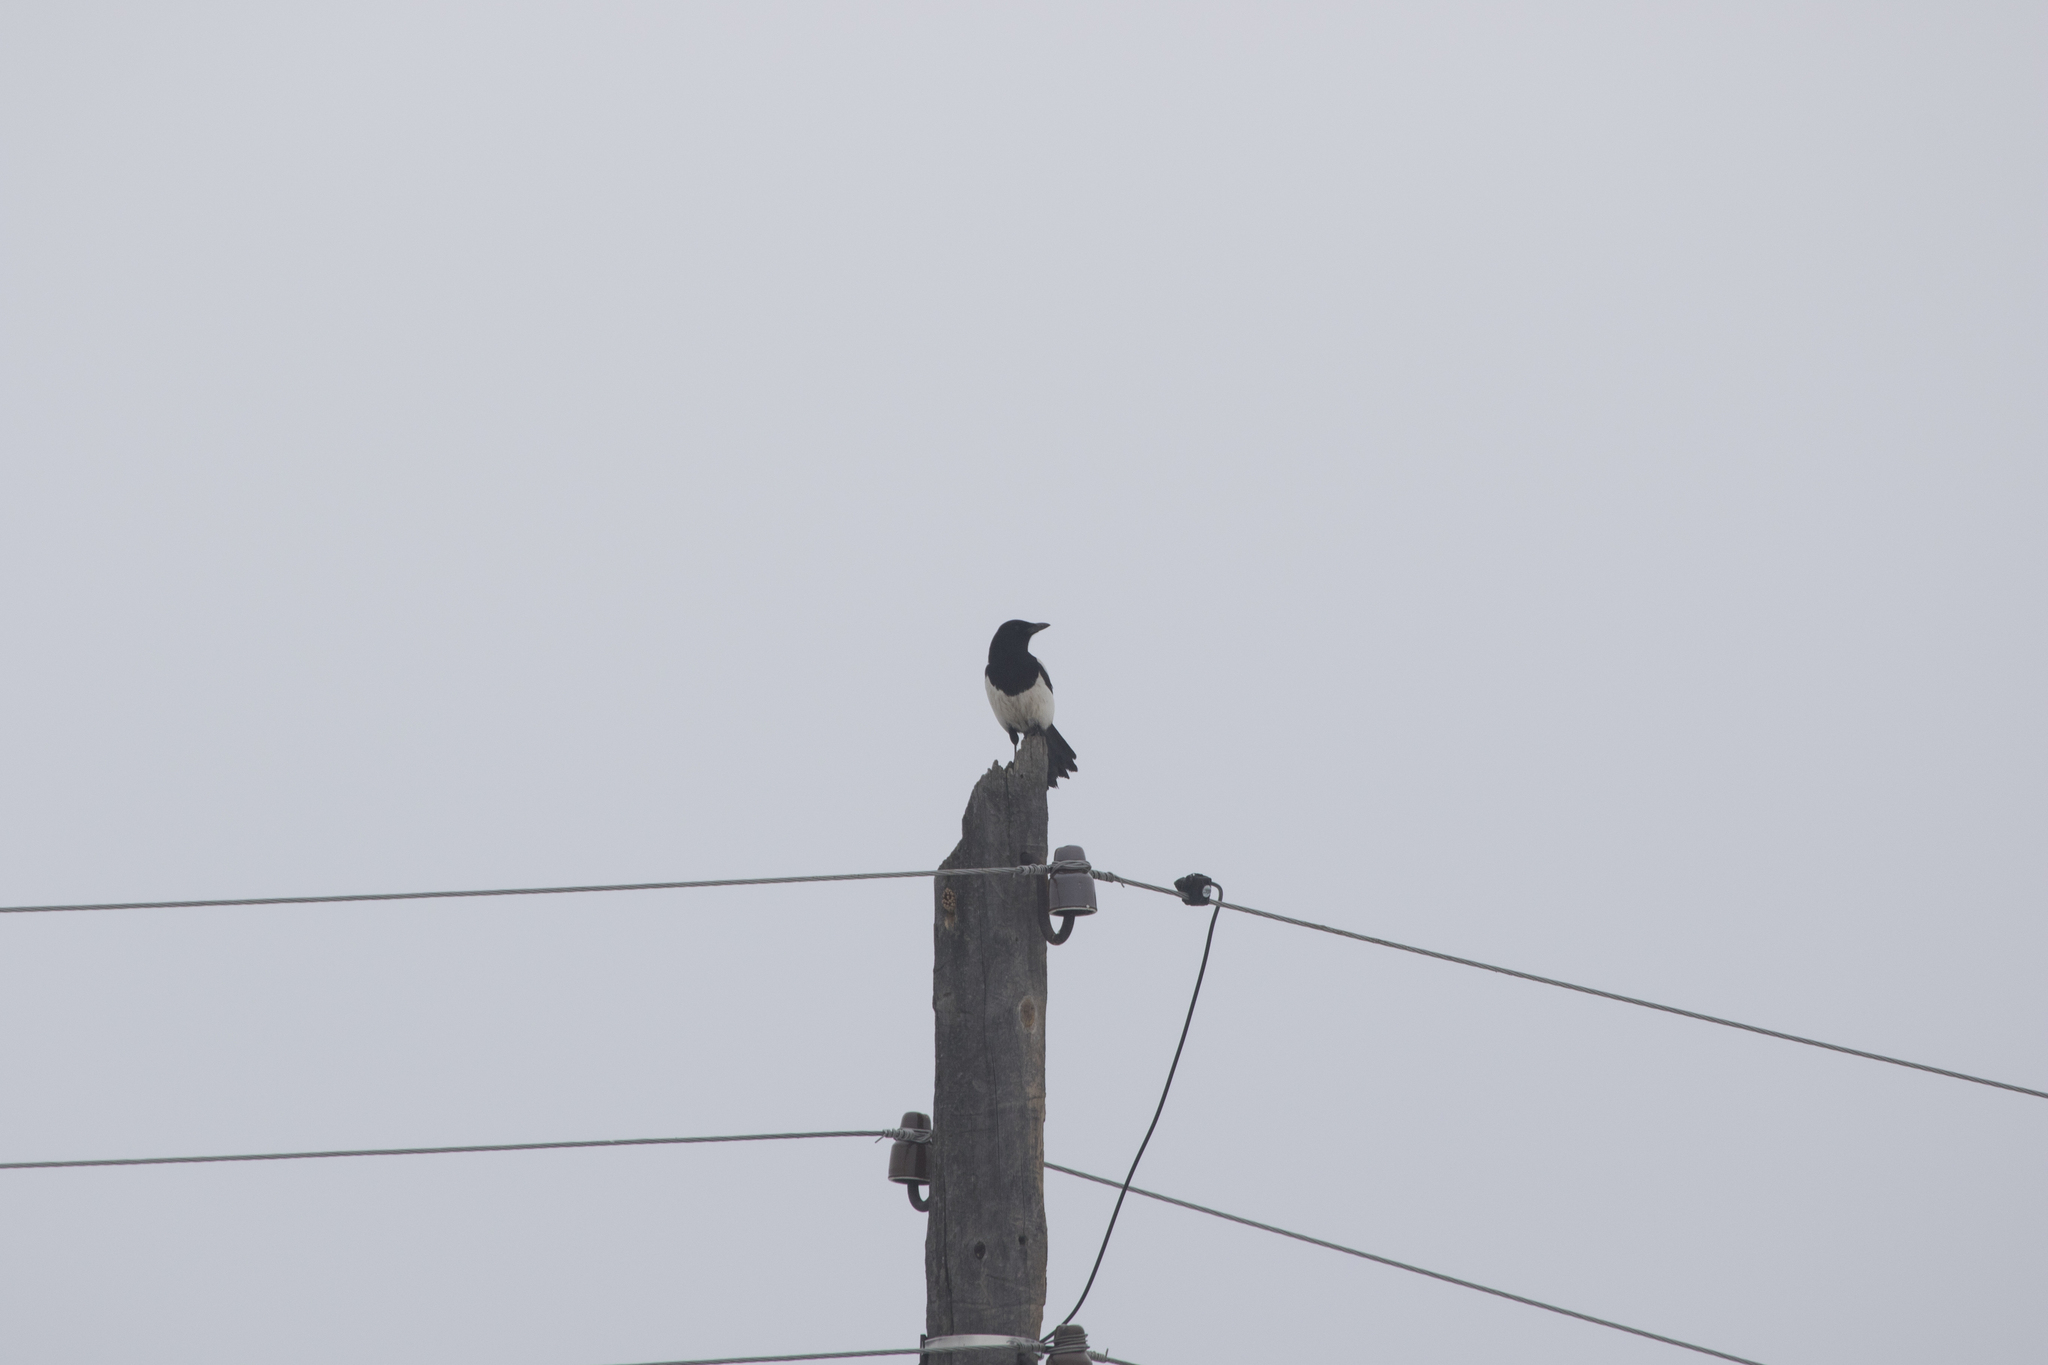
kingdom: Animalia
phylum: Chordata
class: Aves
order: Passeriformes
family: Corvidae
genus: Pica
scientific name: Pica pica
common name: Eurasian magpie
